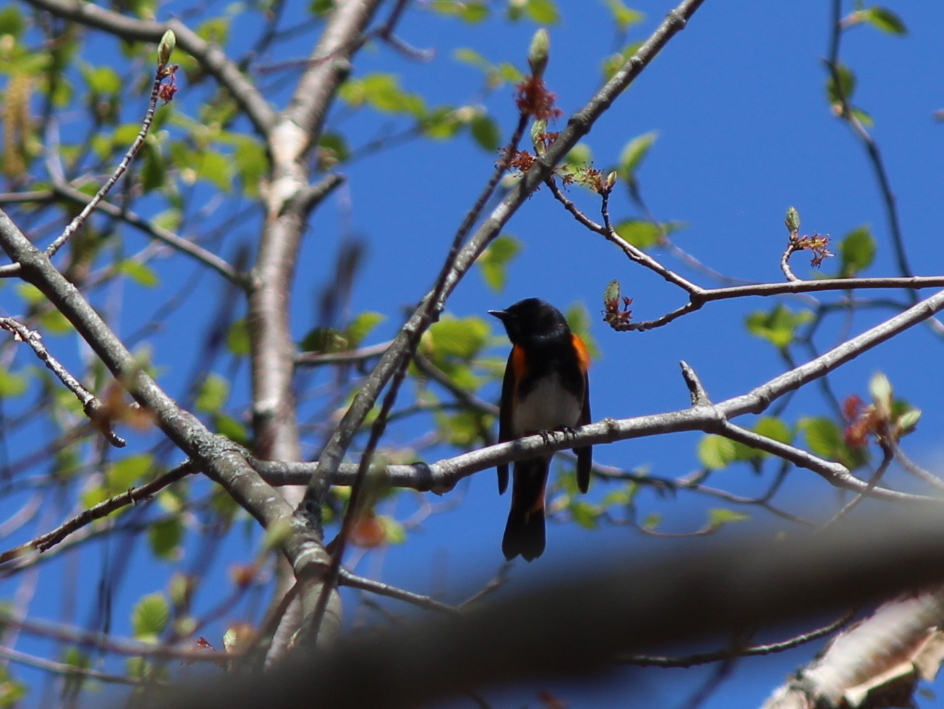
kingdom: Animalia
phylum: Chordata
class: Aves
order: Passeriformes
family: Parulidae
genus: Setophaga
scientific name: Setophaga ruticilla
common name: American redstart
